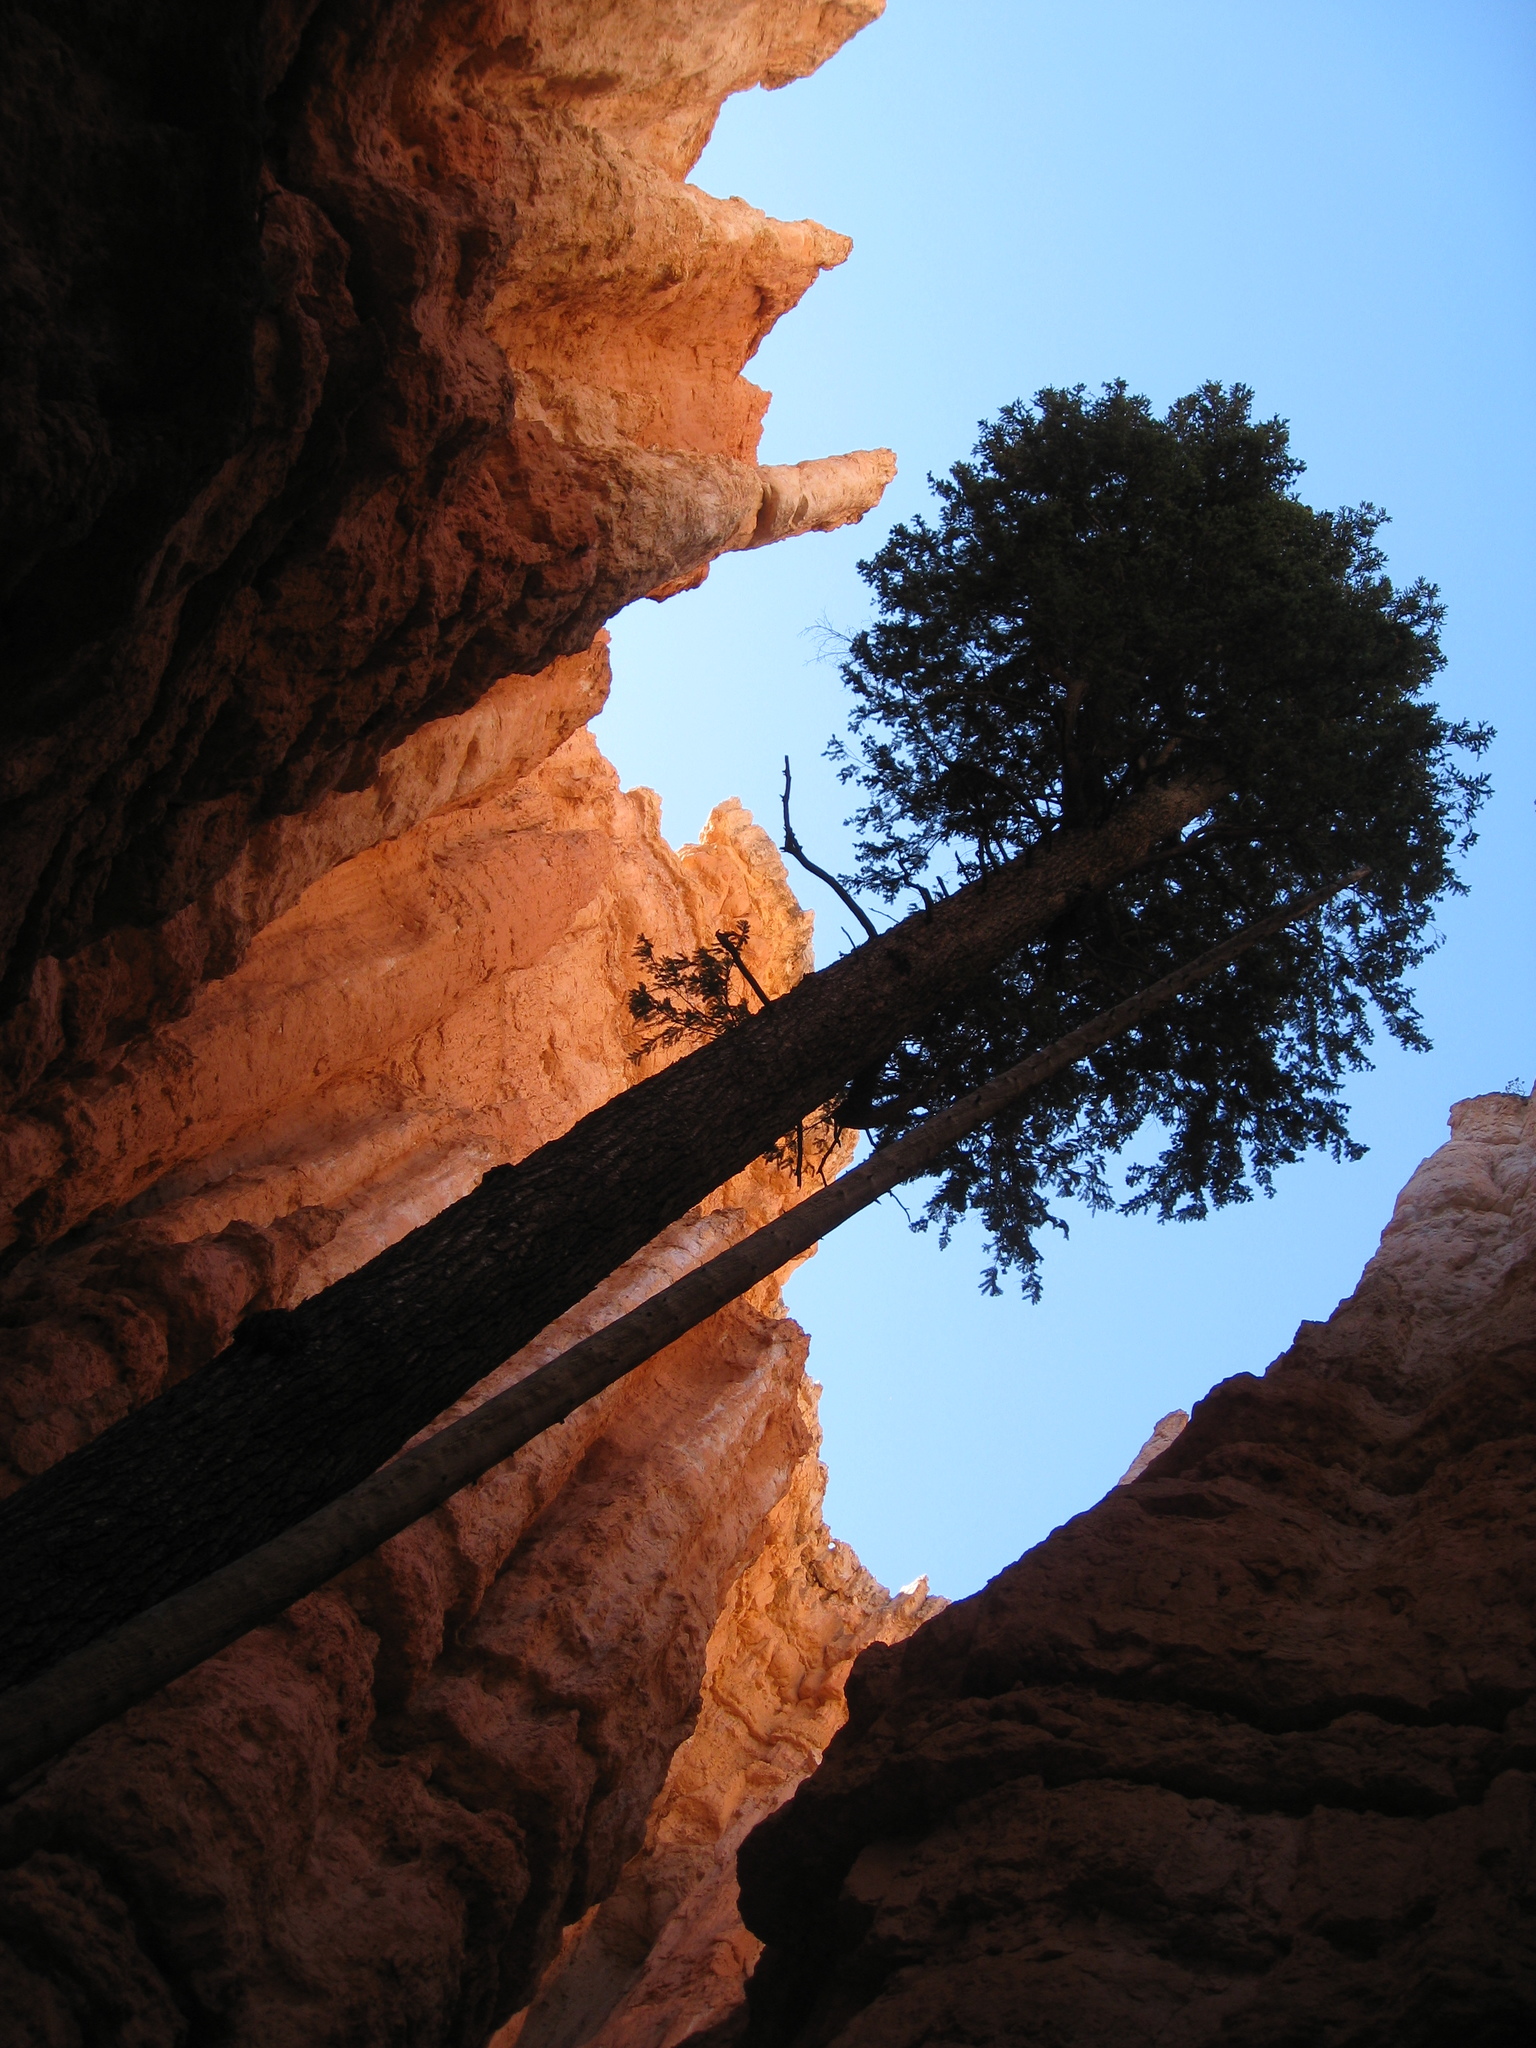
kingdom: Plantae
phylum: Tracheophyta
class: Pinopsida
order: Pinales
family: Pinaceae
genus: Pseudotsuga
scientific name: Pseudotsuga menziesii
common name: Douglas fir
